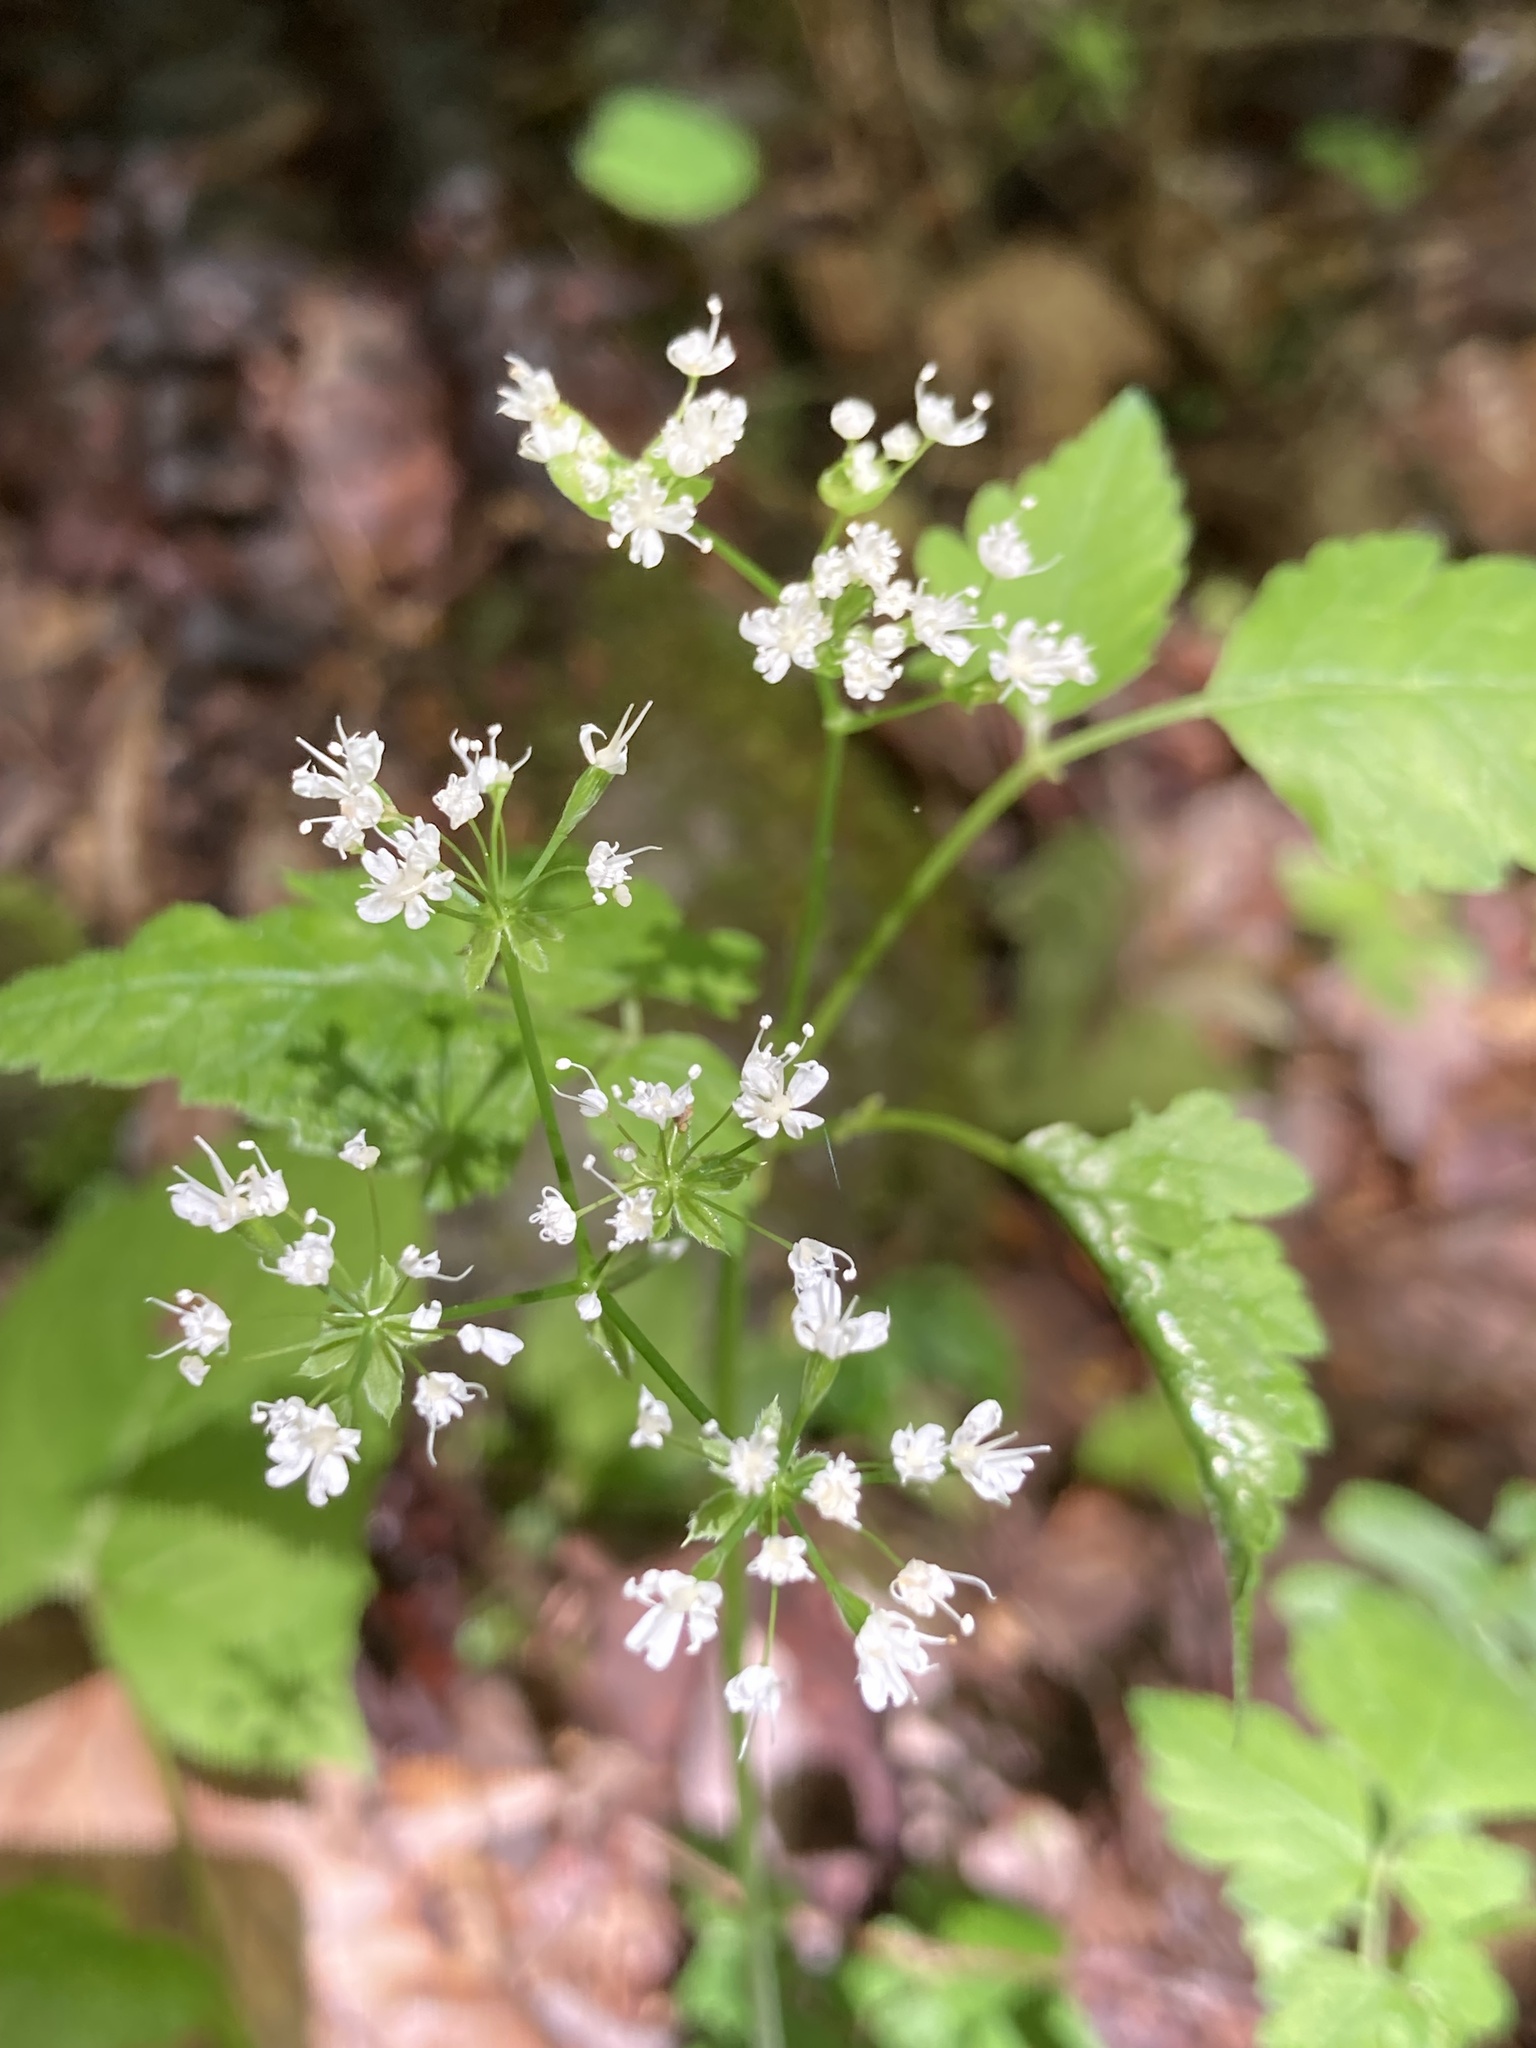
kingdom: Plantae
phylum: Tracheophyta
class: Magnoliopsida
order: Apiales
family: Apiaceae
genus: Osmorhiza
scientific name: Osmorhiza longistylis
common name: Smooth sweet cicely
